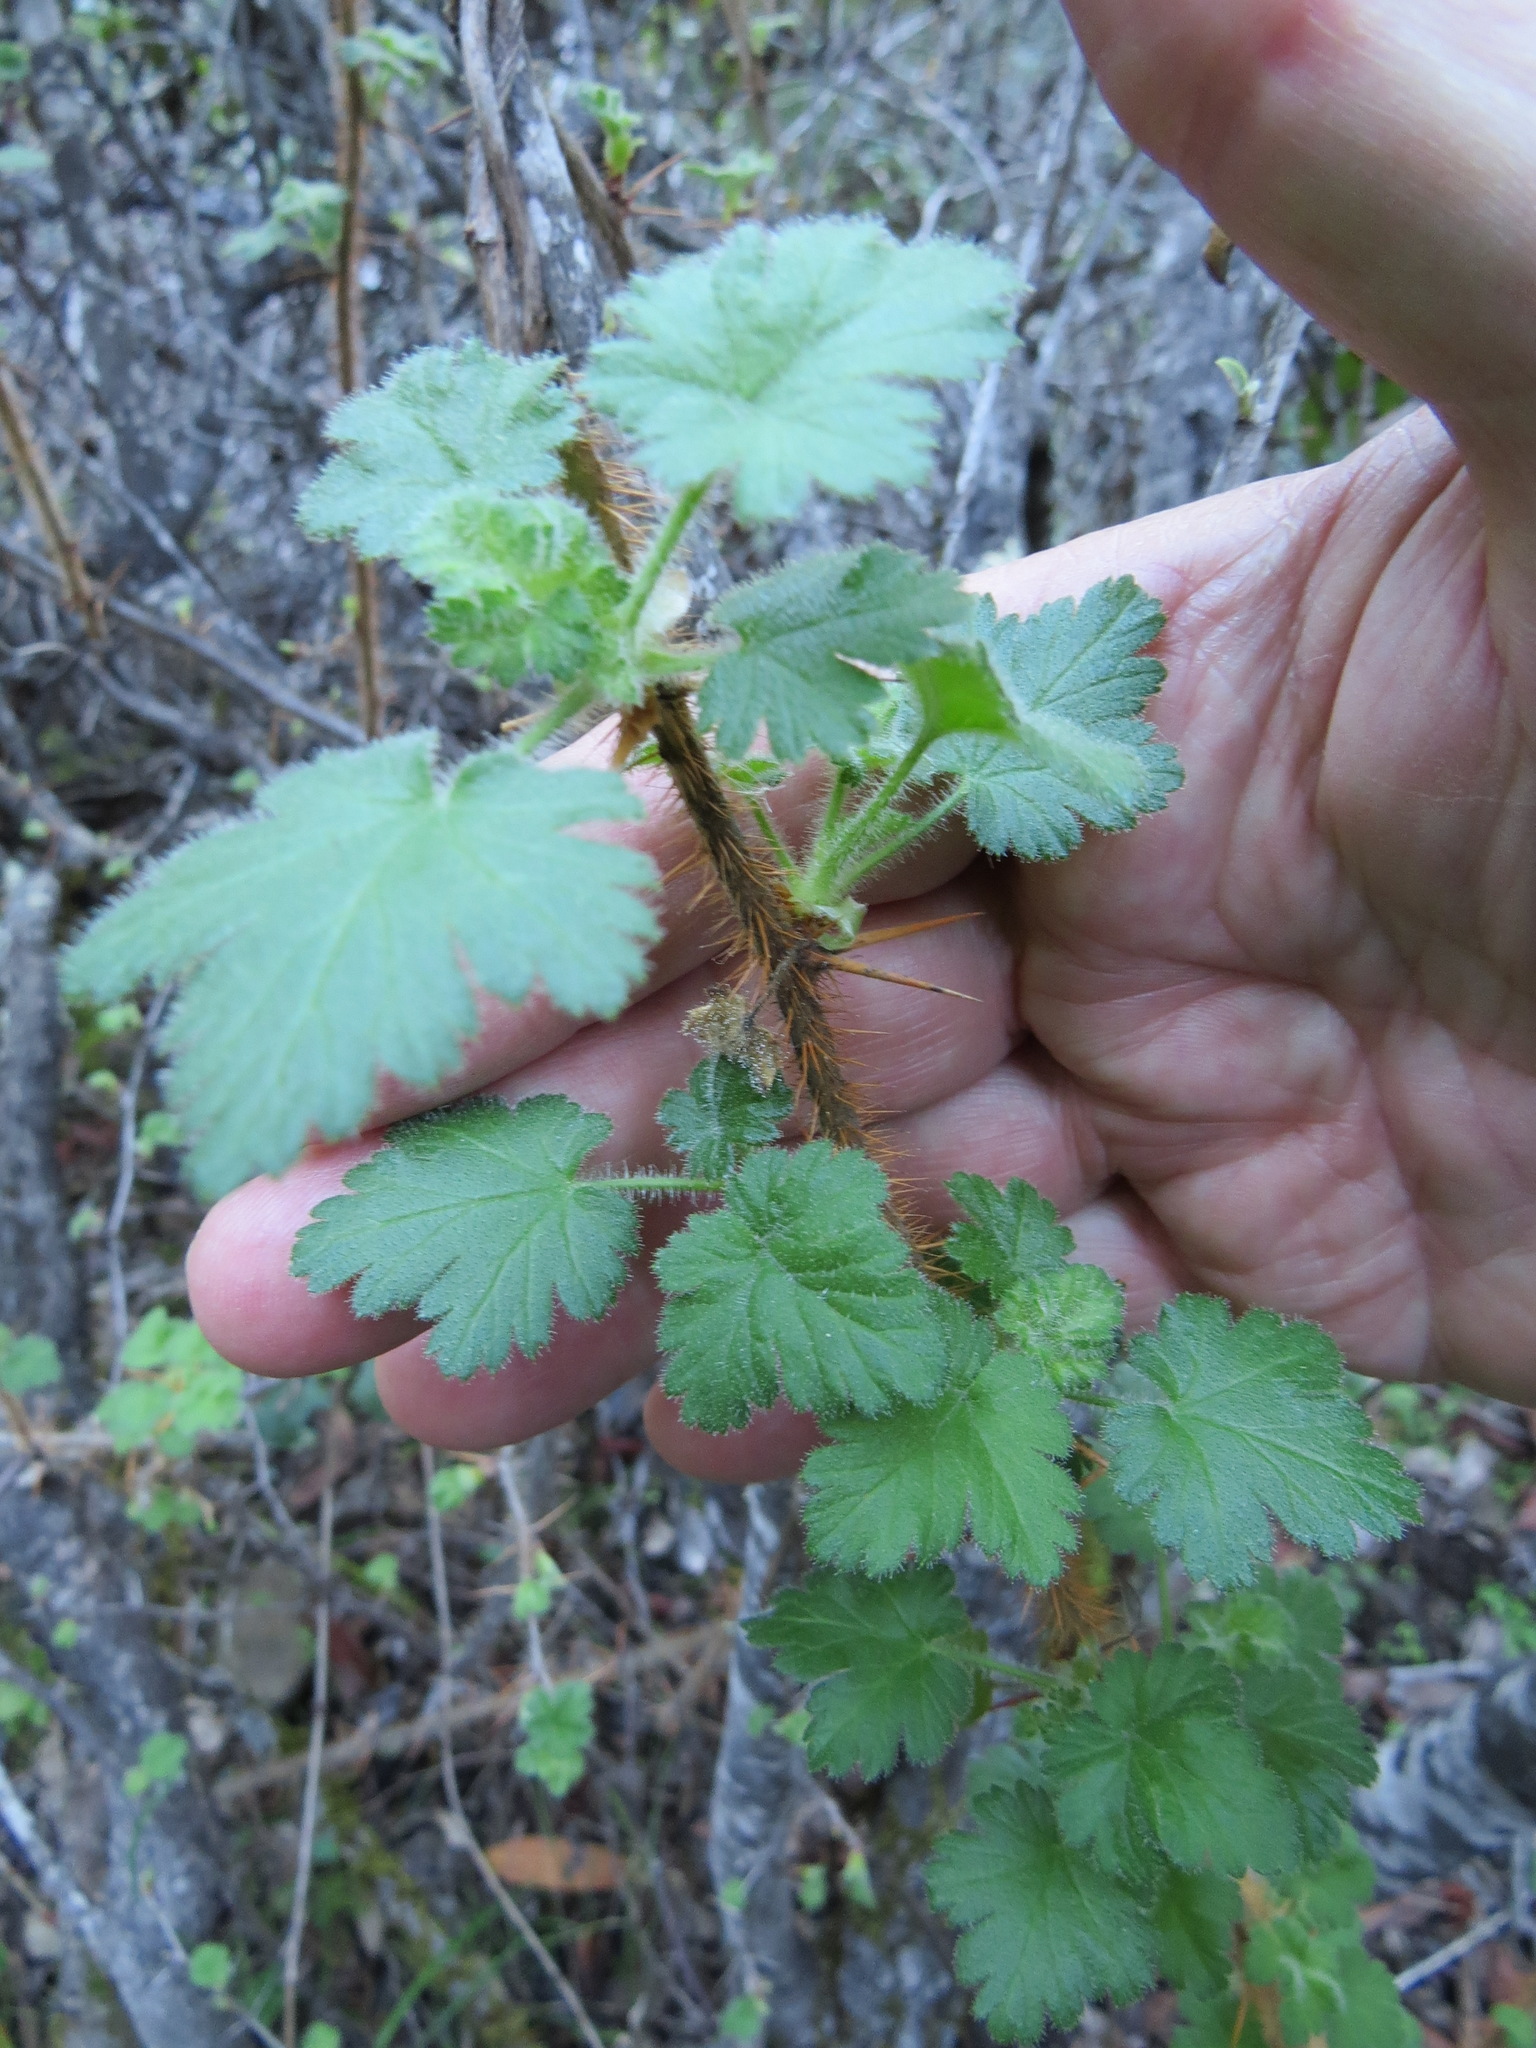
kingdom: Plantae
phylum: Tracheophyta
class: Magnoliopsida
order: Saxifragales
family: Grossulariaceae
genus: Ribes
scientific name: Ribes menziesii
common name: Canyon gooseberry
